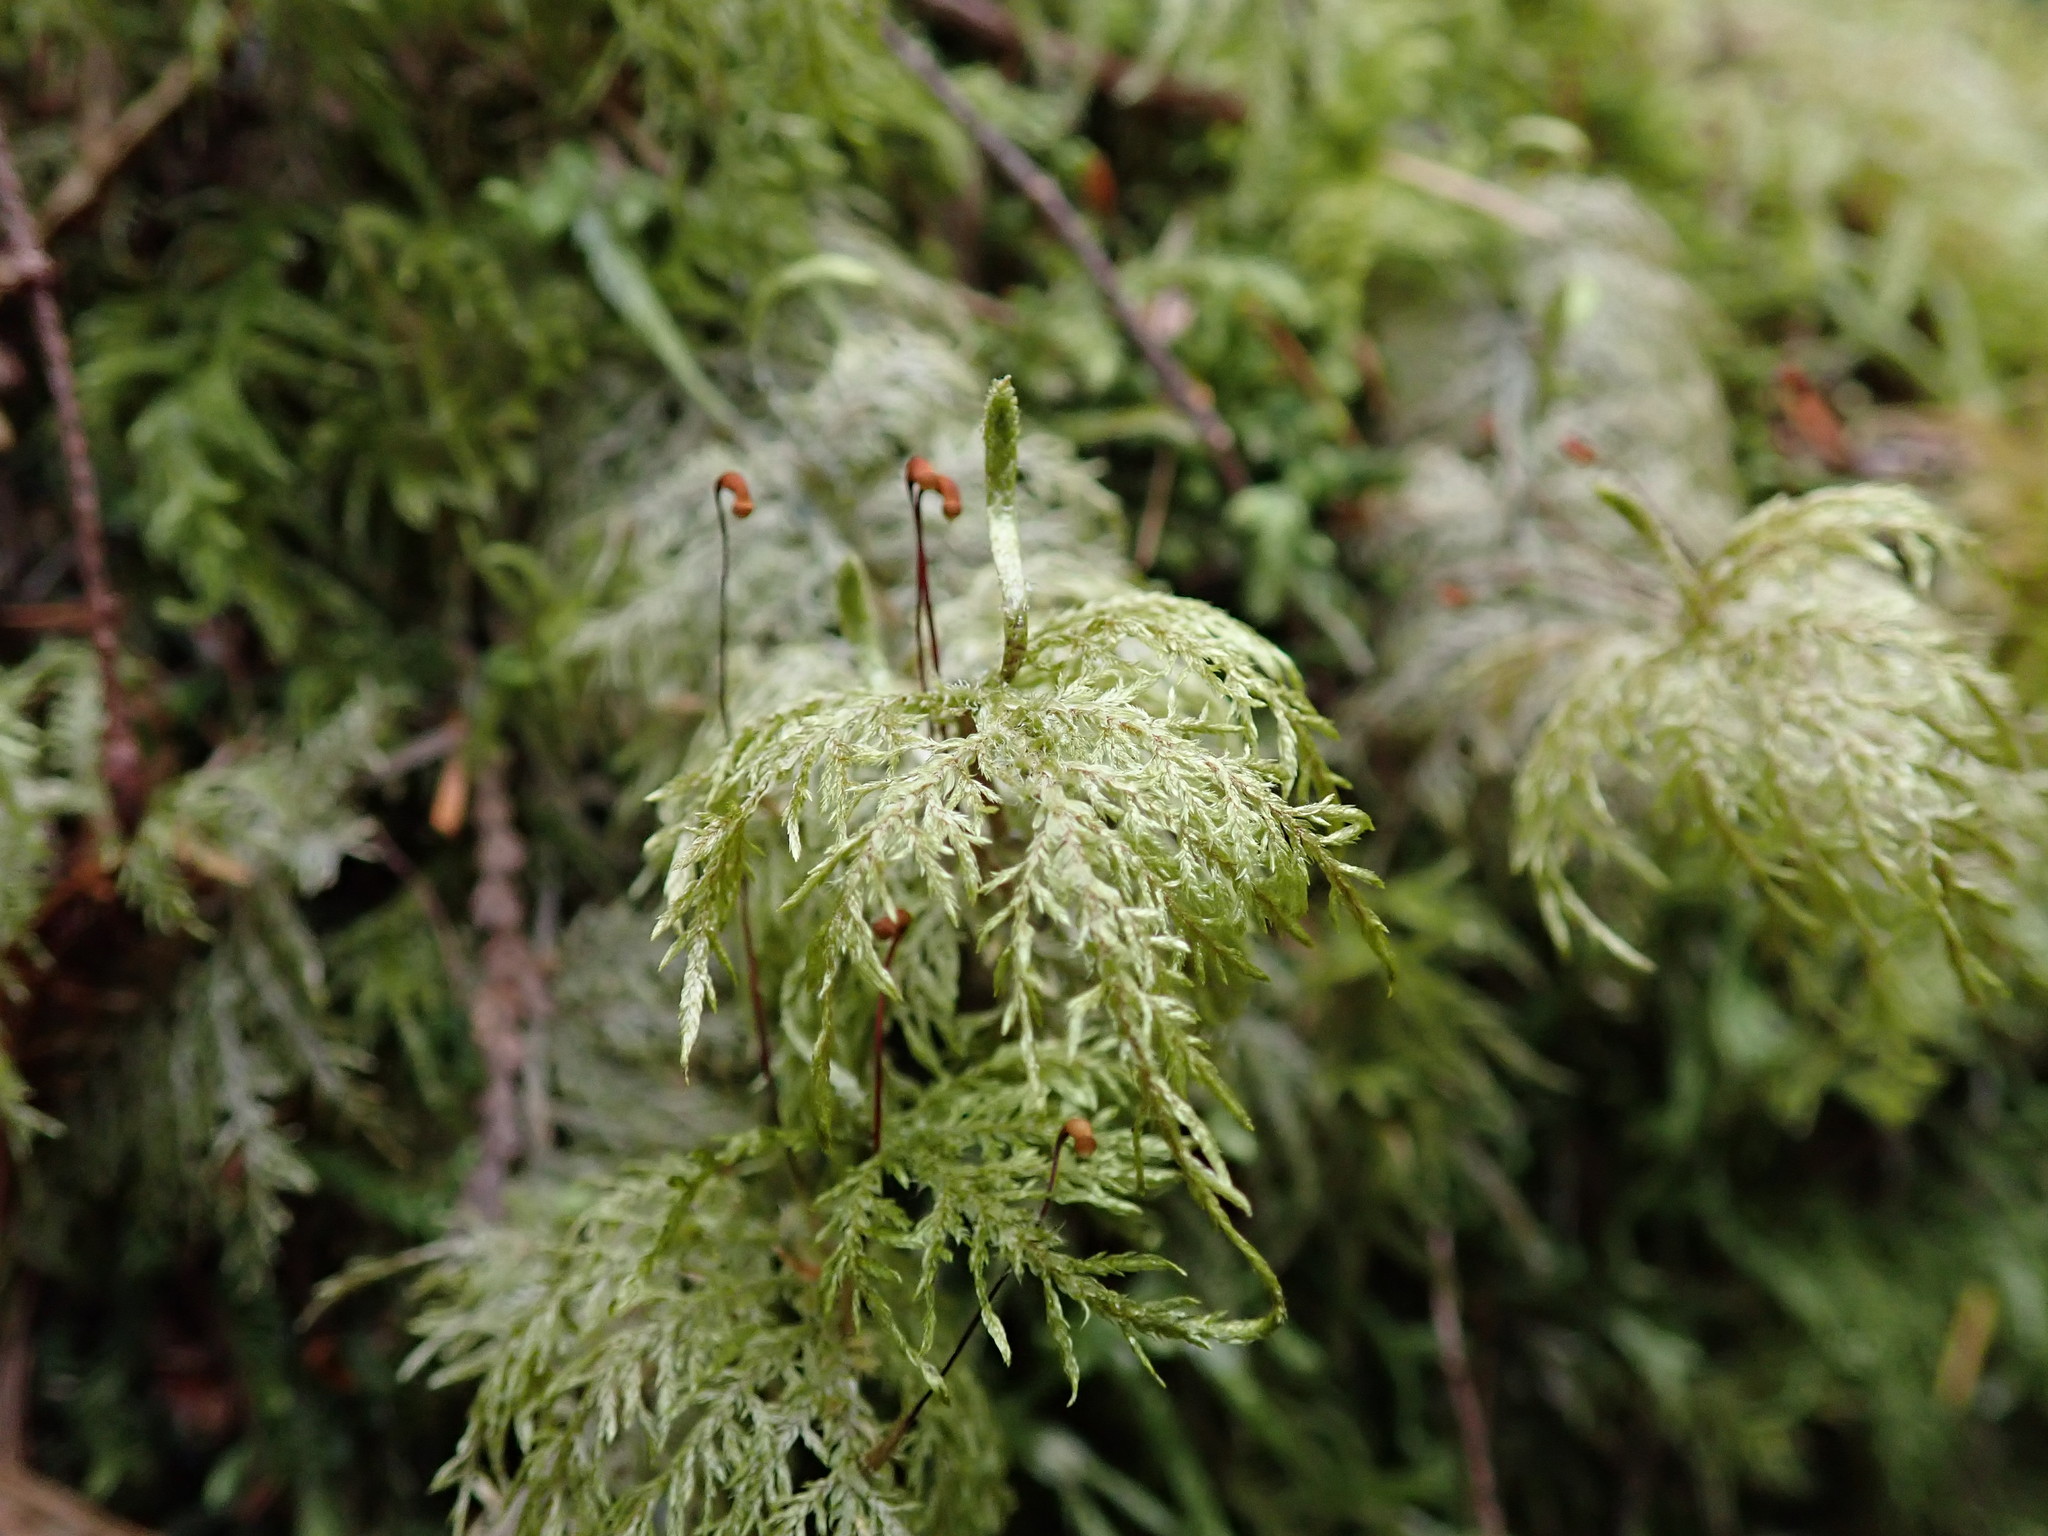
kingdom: Plantae
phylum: Bryophyta
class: Bryopsida
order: Hypnales
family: Hylocomiaceae
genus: Hylocomium
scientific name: Hylocomium splendens
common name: Stairstep moss
